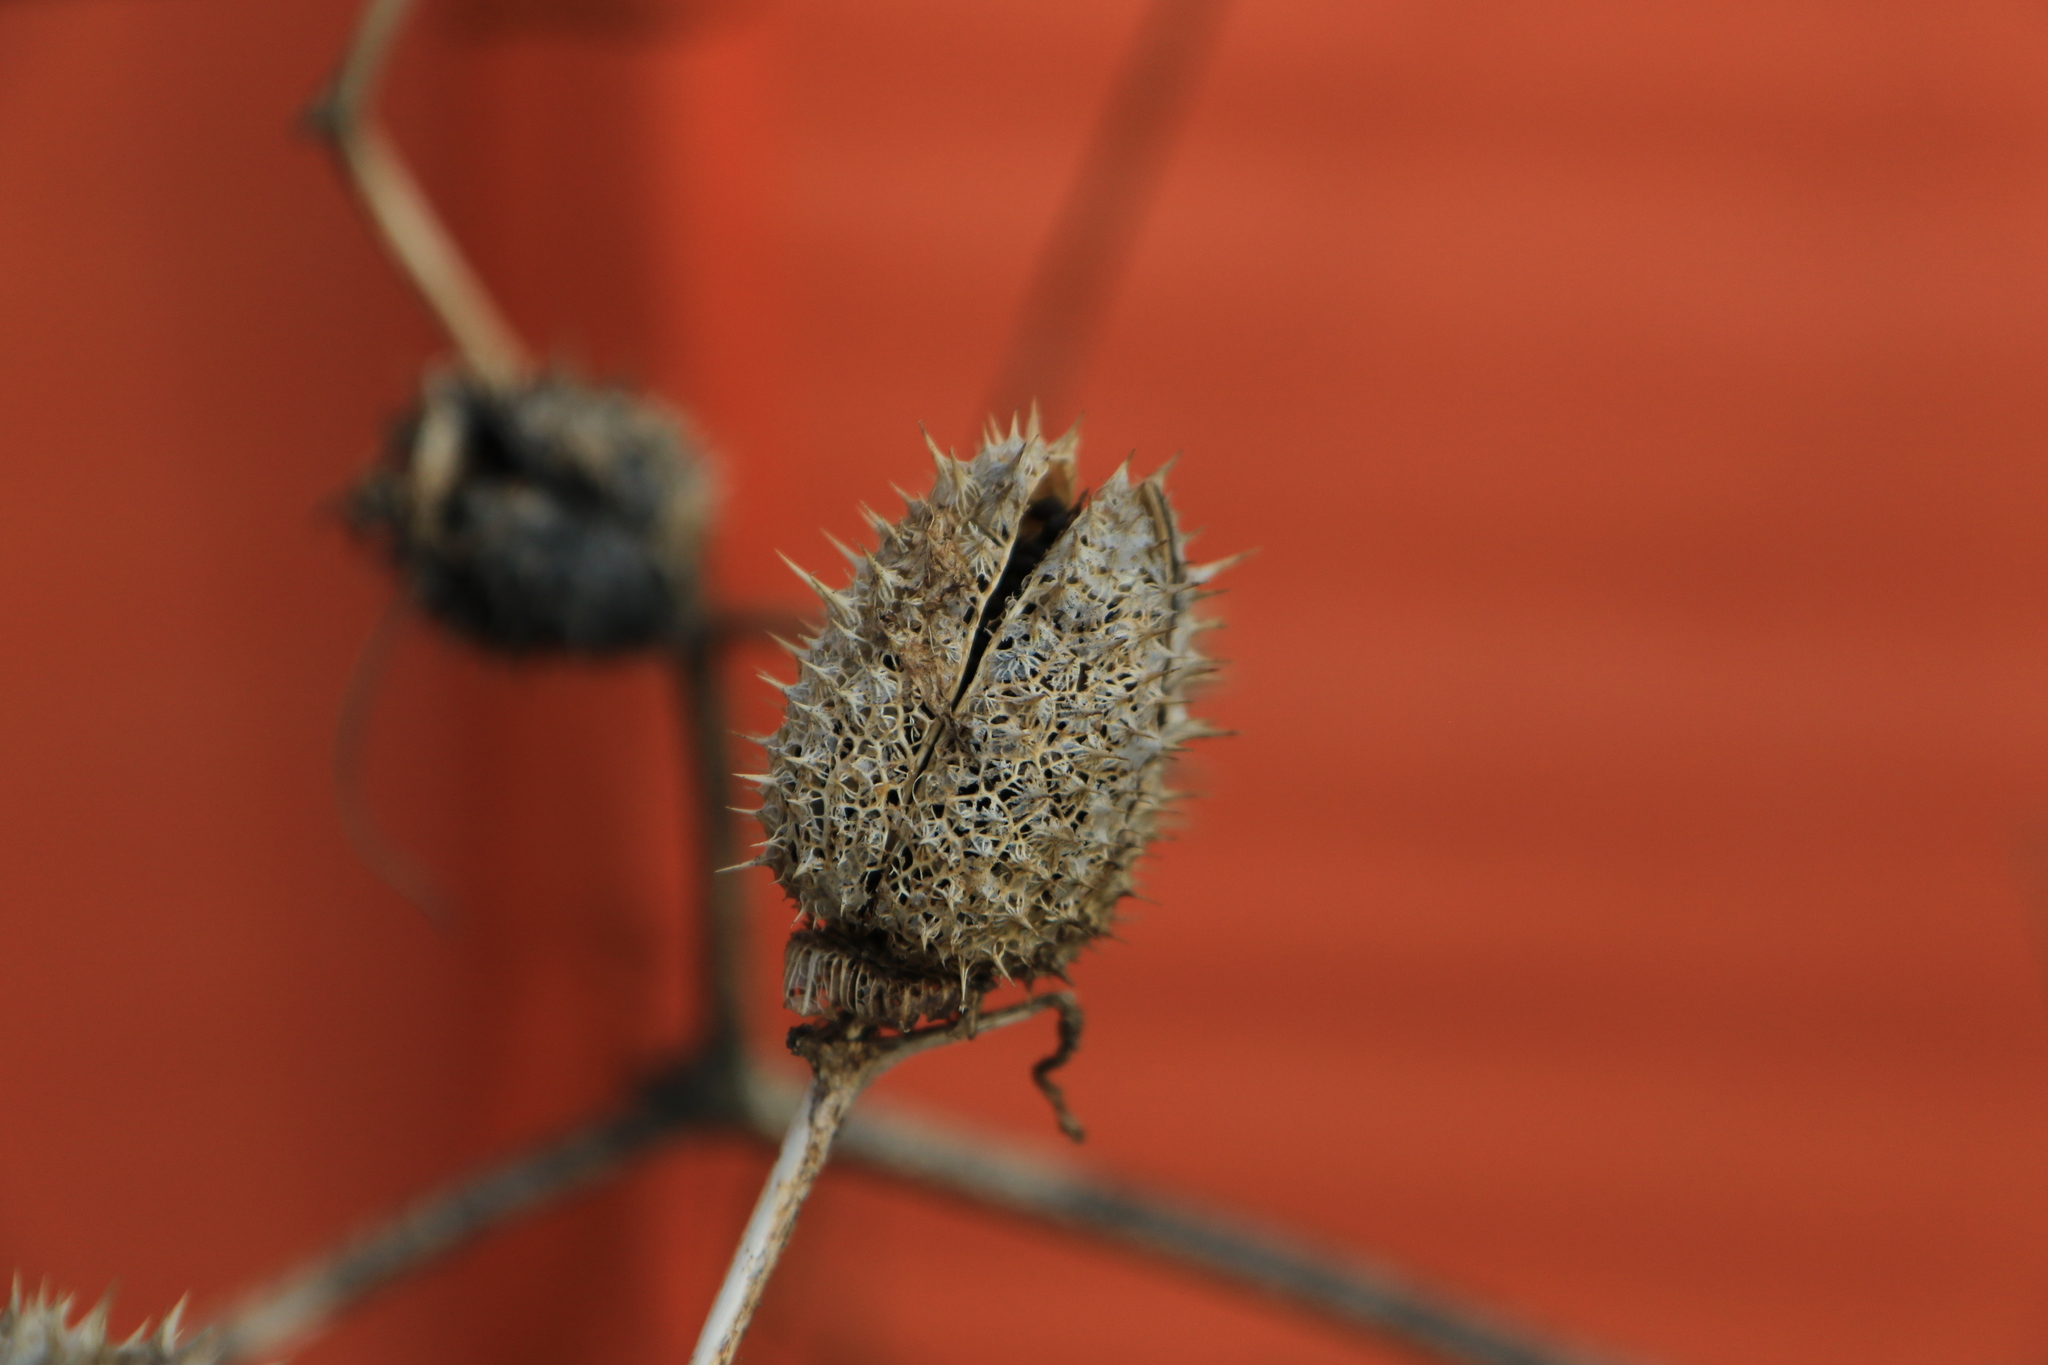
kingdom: Plantae
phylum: Tracheophyta
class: Magnoliopsida
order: Solanales
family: Solanaceae
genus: Datura
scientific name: Datura stramonium
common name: Thorn-apple
